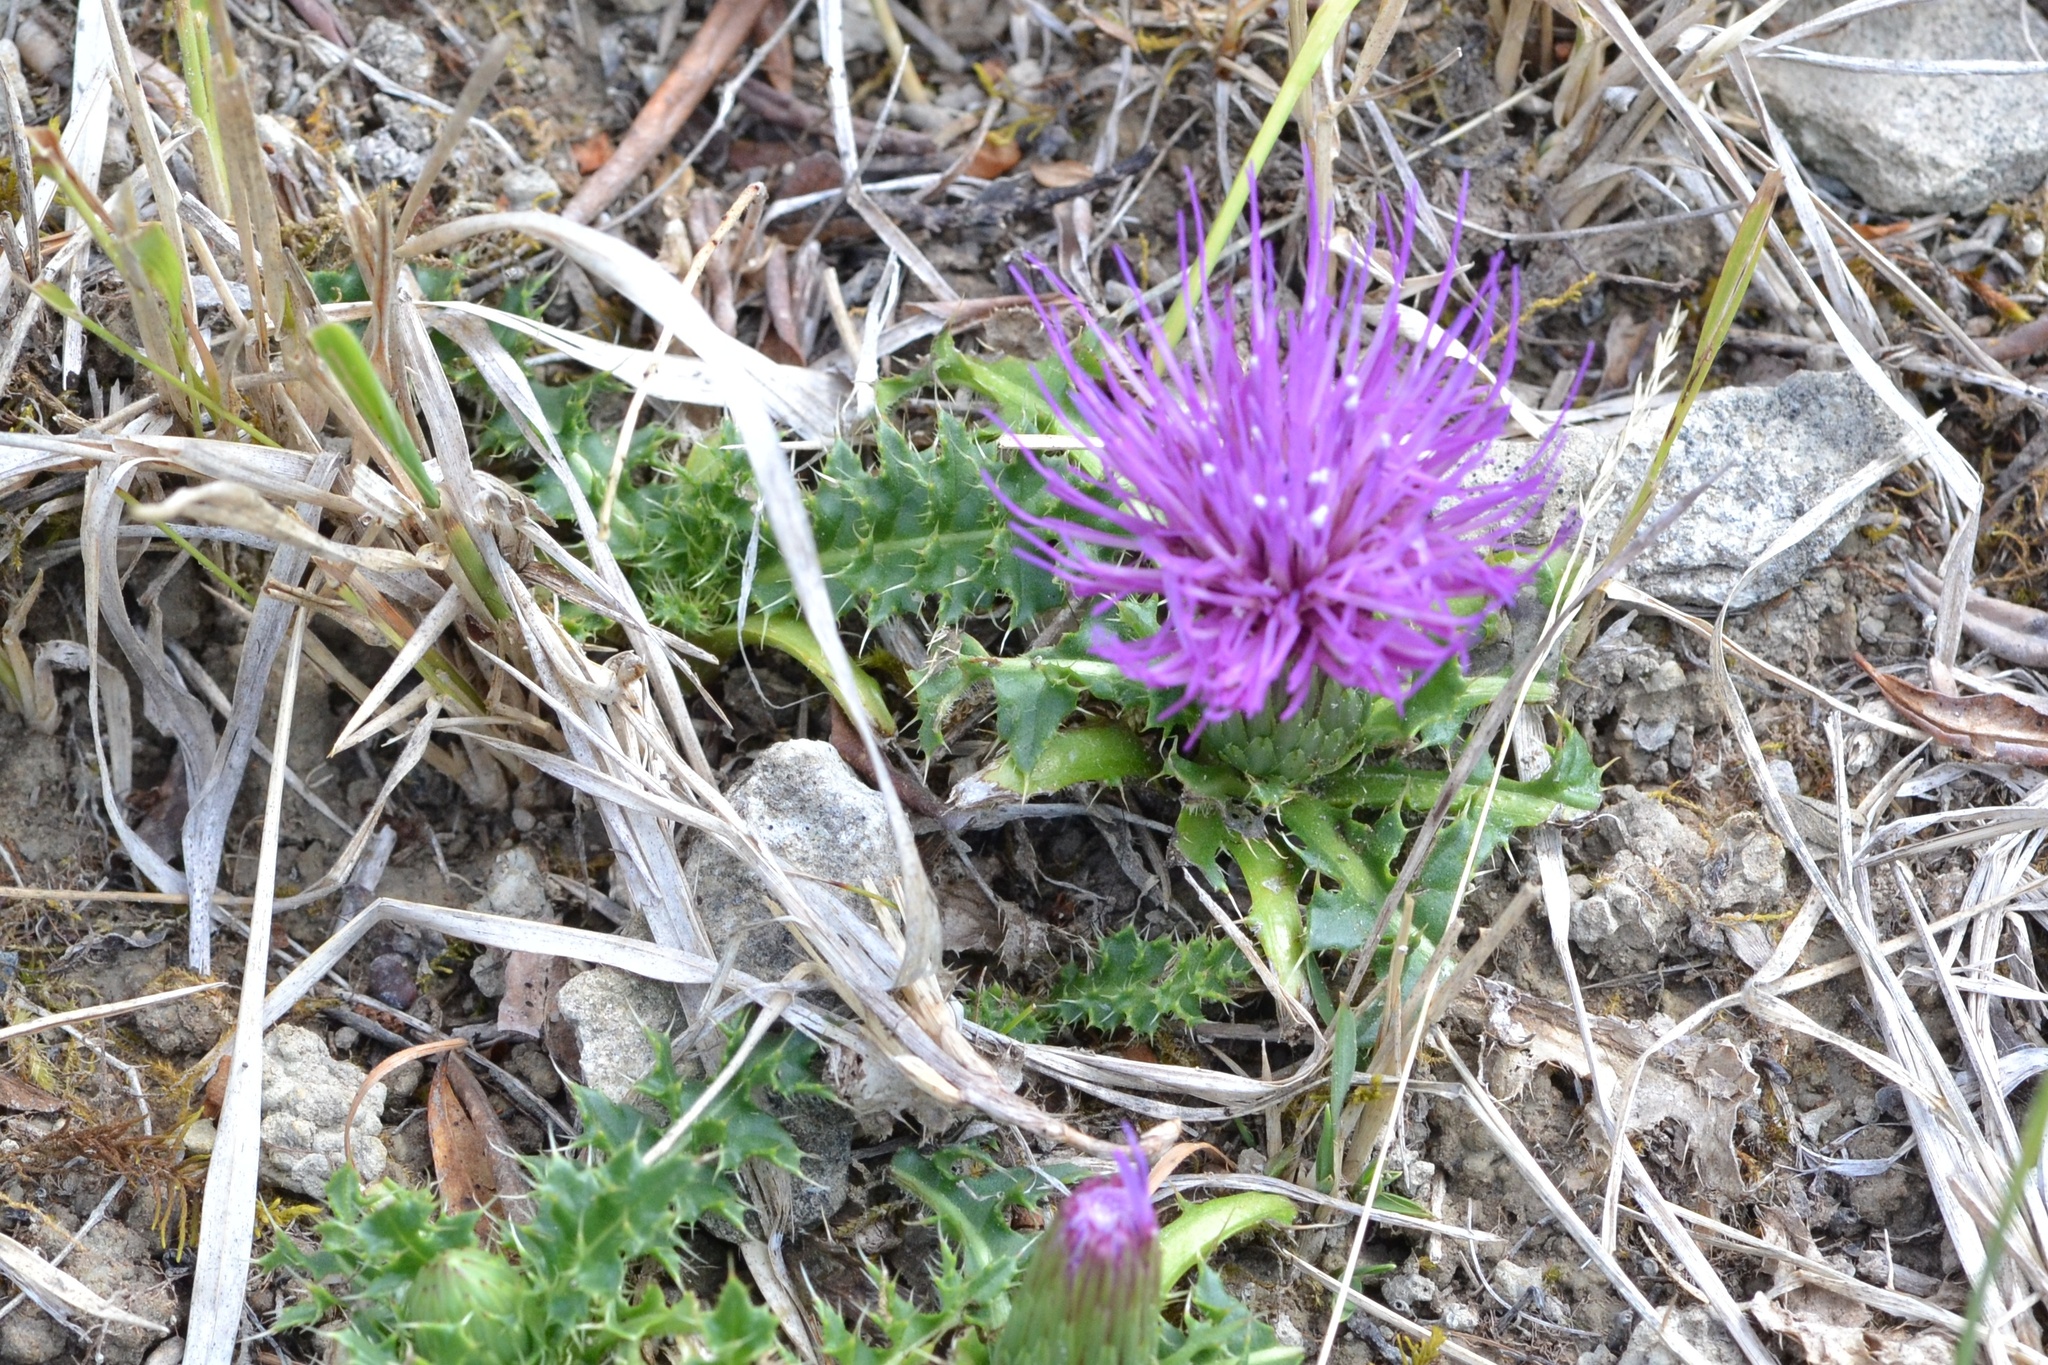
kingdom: Plantae
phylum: Tracheophyta
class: Magnoliopsida
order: Asterales
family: Asteraceae
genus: Cirsium
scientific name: Cirsium acaulon
